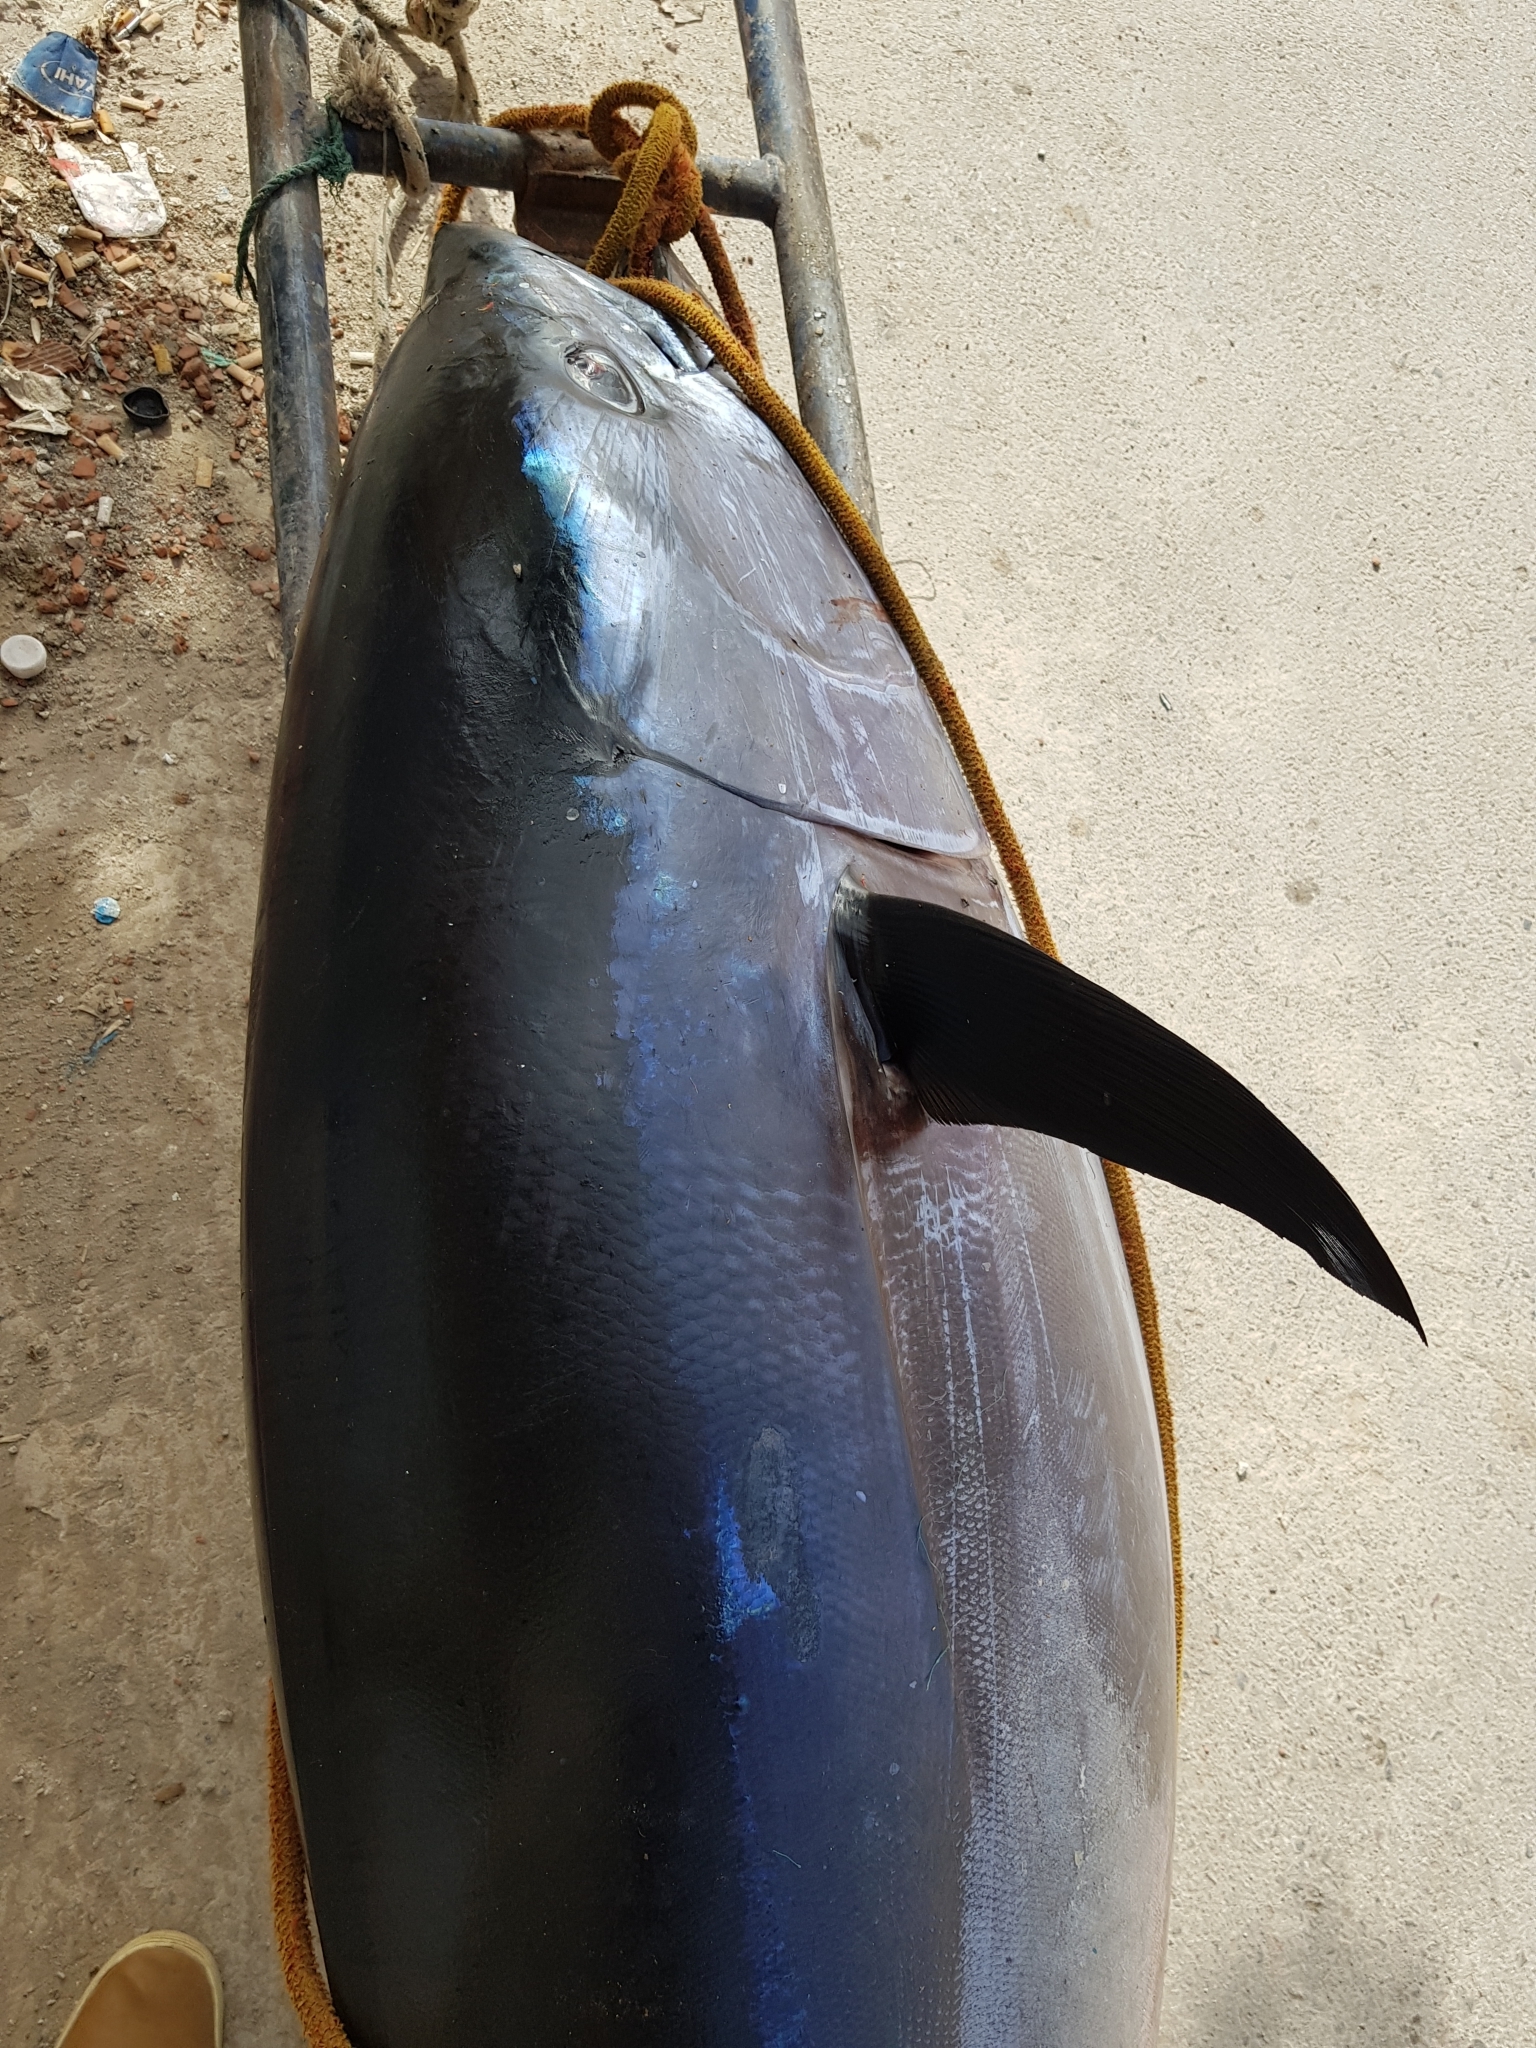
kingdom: Animalia
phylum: Chordata
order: Perciformes
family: Scombridae
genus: Thunnus
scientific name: Thunnus thynnus
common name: Bluefin tuna
